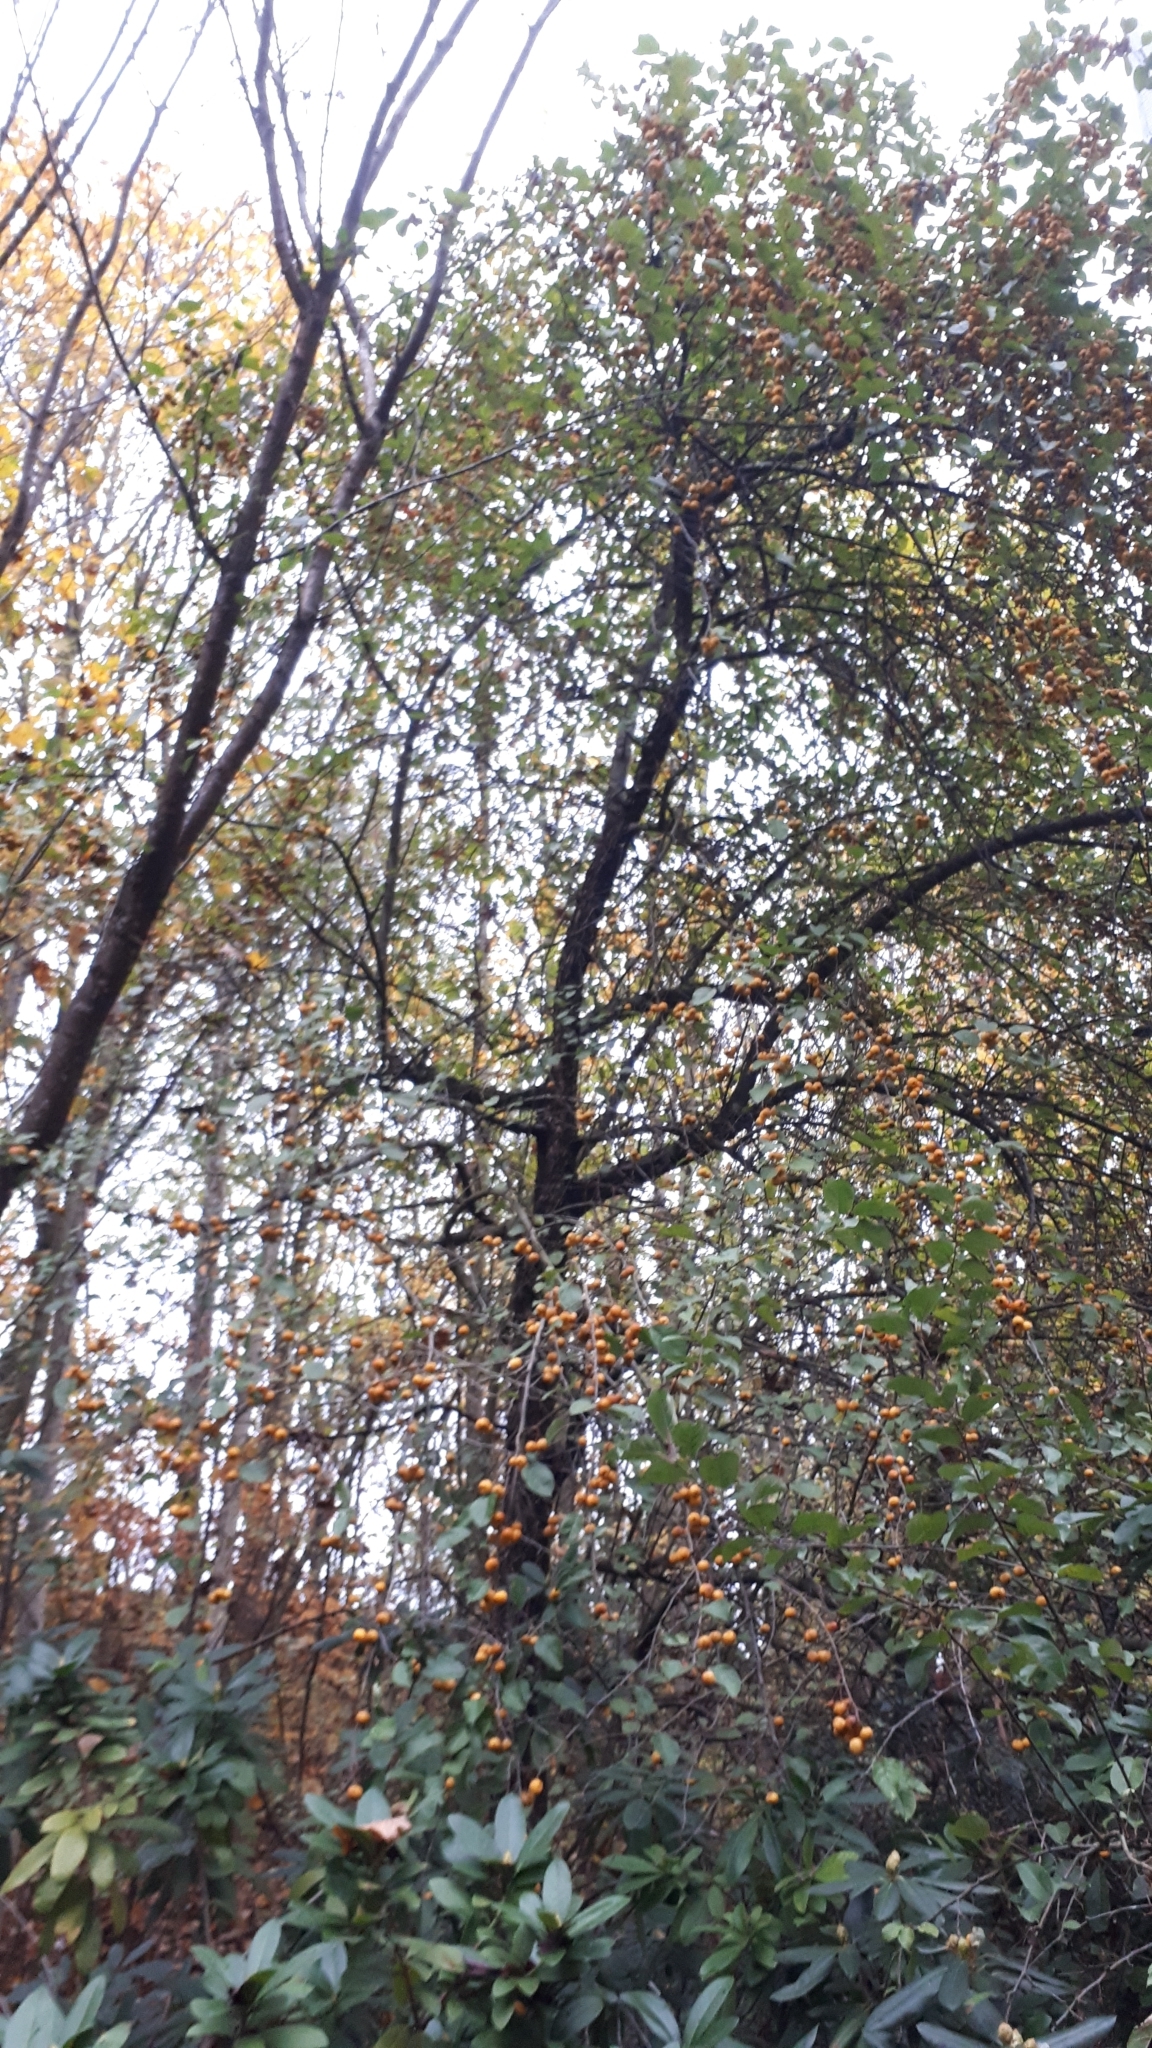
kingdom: Plantae
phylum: Tracheophyta
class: Magnoliopsida
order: Rosales
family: Rosaceae
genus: Malus
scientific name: Malus sylvestris
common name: Crab apple
